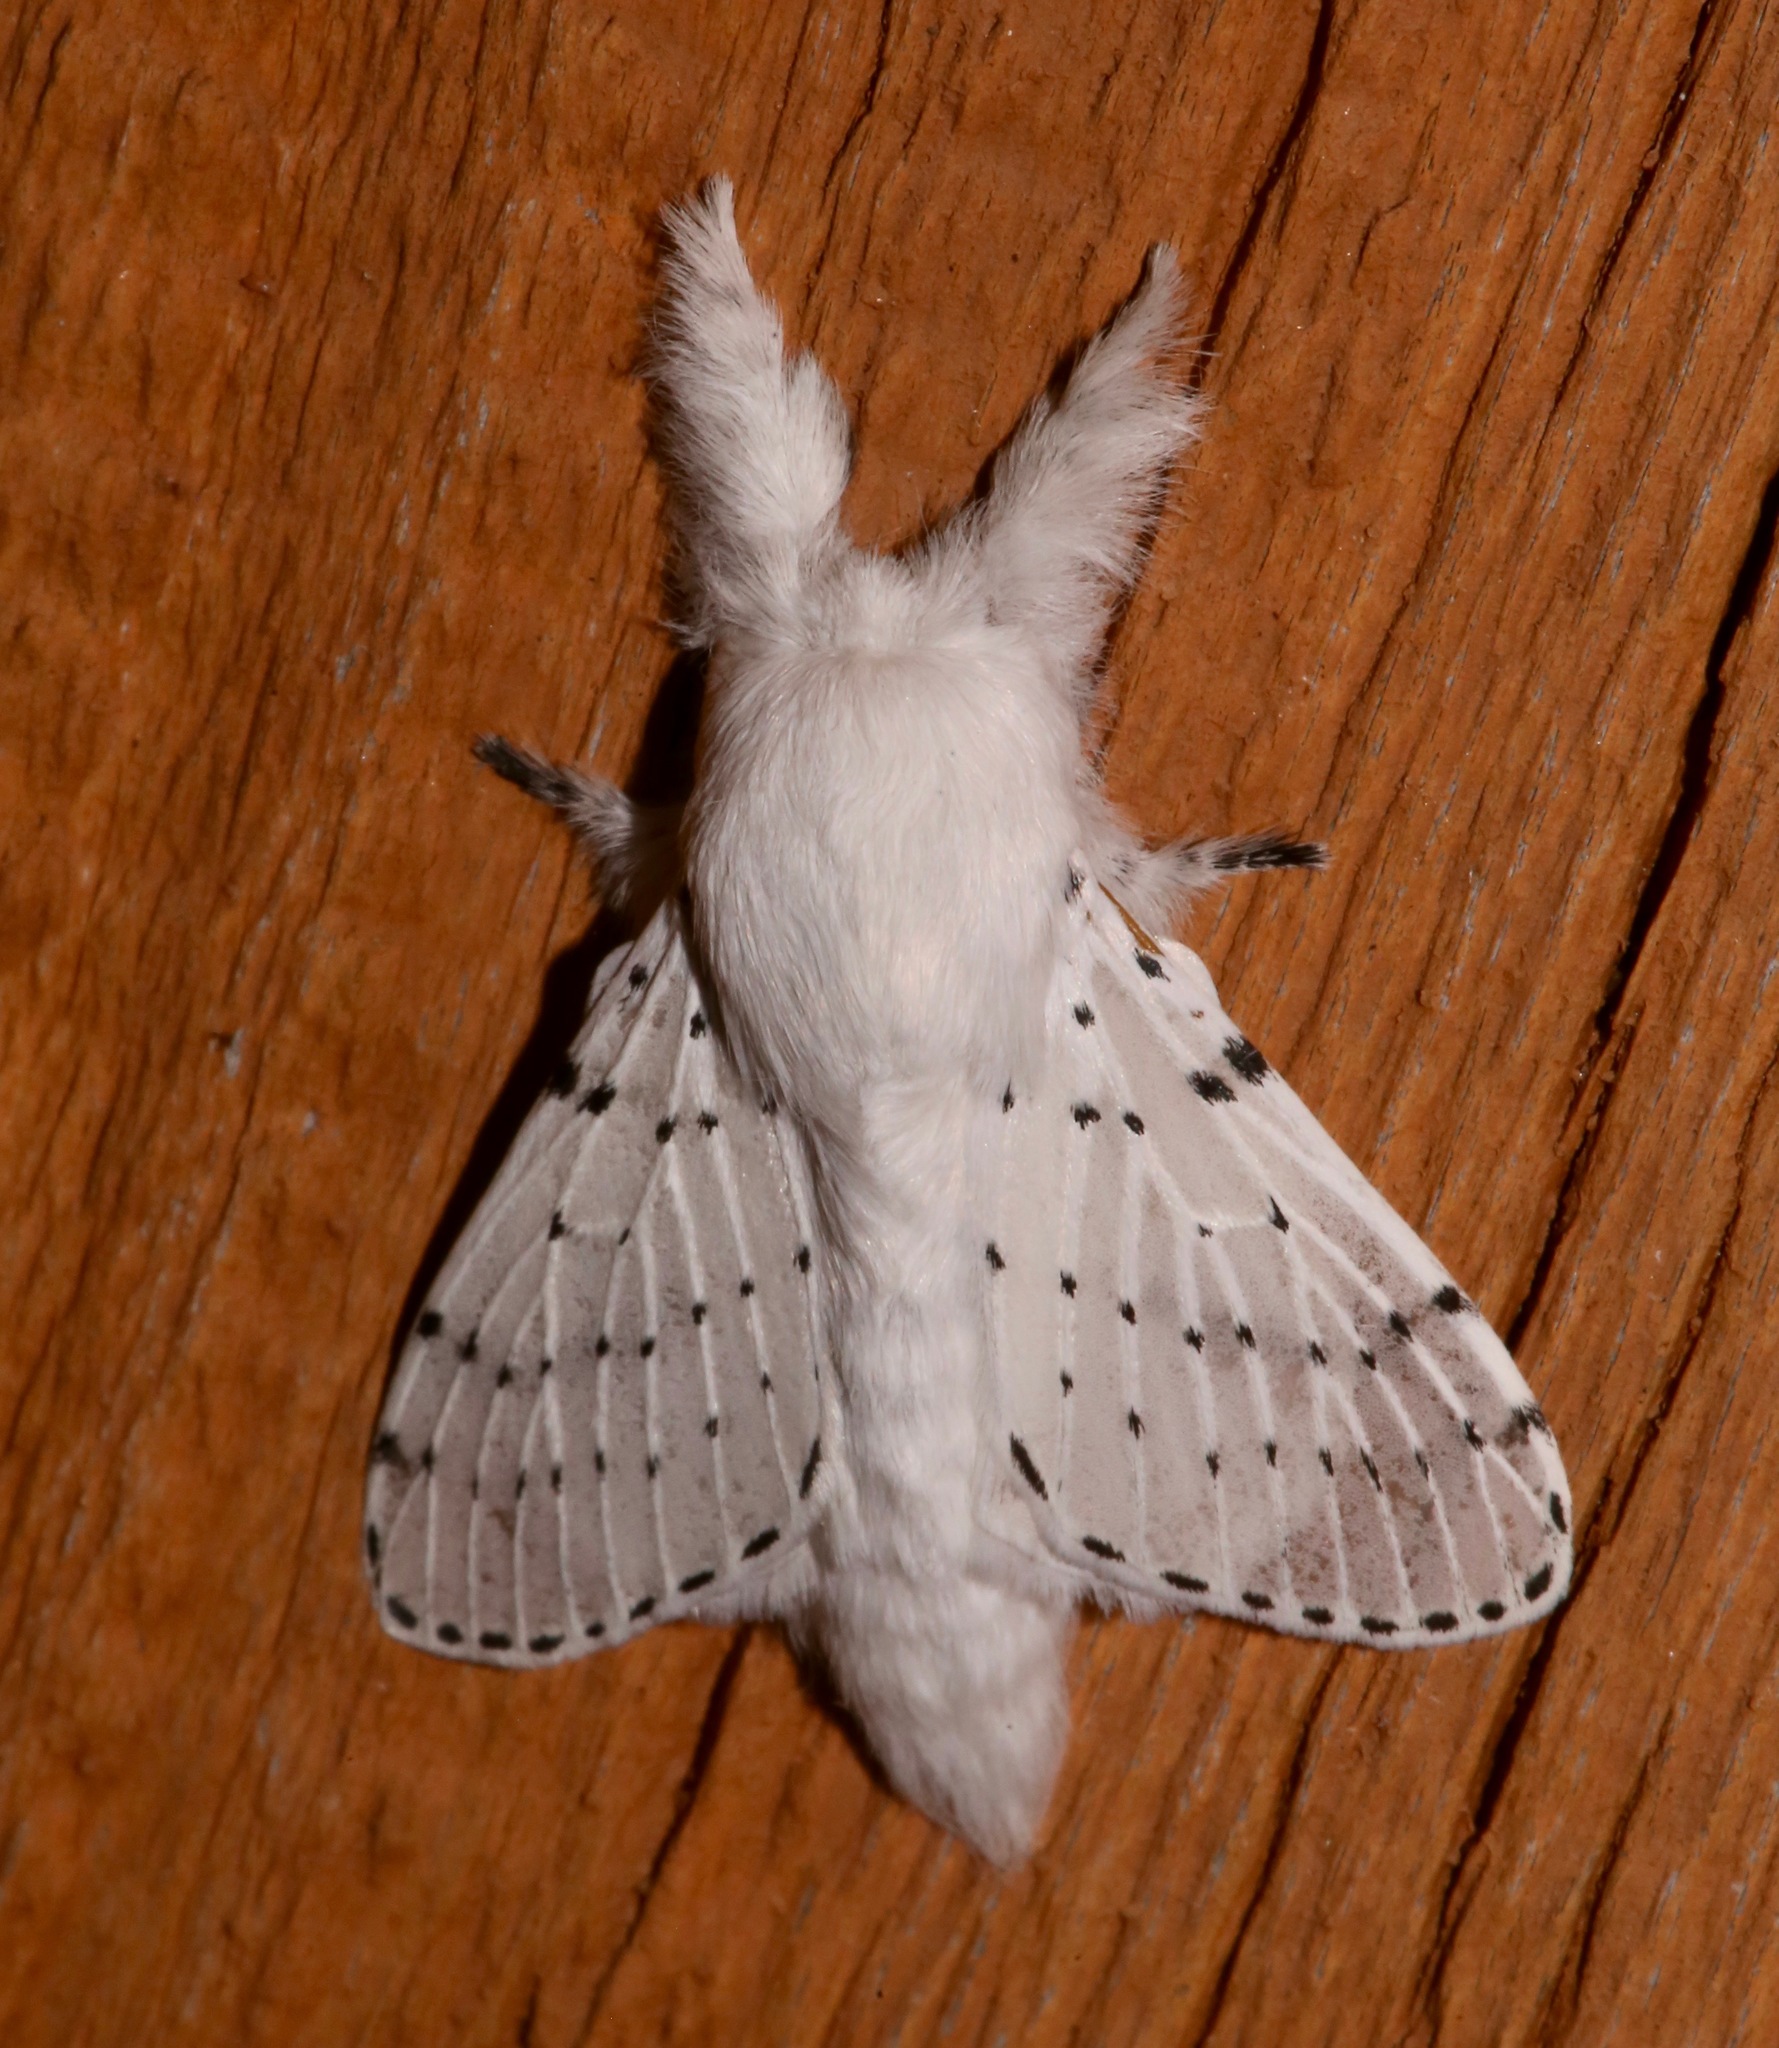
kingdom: Animalia
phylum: Arthropoda
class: Insecta
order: Lepidoptera
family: Lasiocampidae
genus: Artace
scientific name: Artace cribrarius
